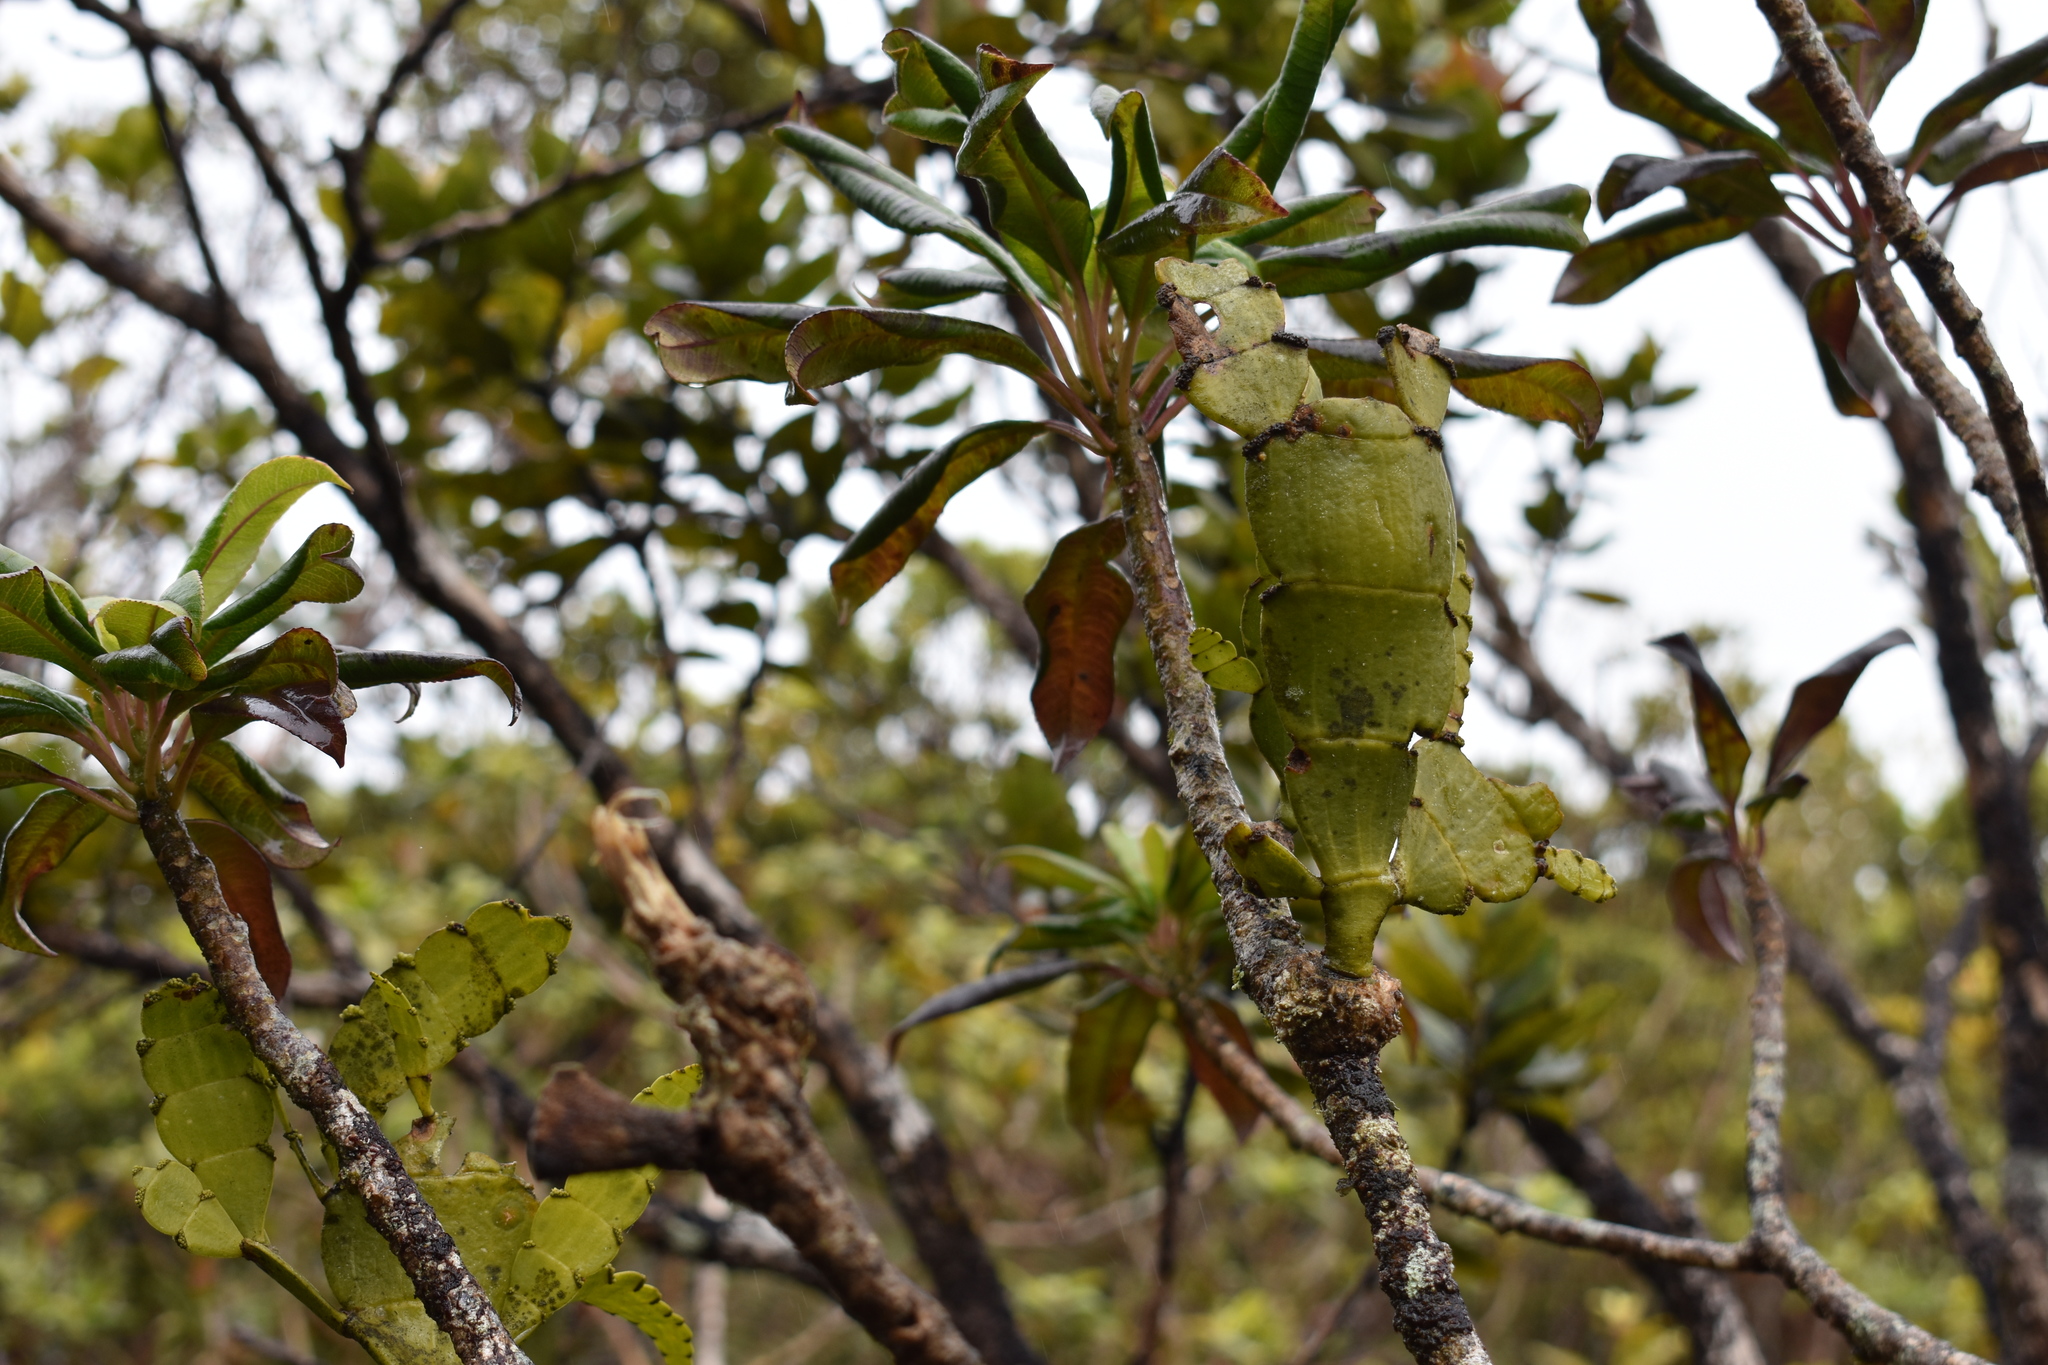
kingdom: Plantae
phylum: Tracheophyta
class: Magnoliopsida
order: Santalales
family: Viscaceae
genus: Korthalsella
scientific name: Korthalsella latissima
